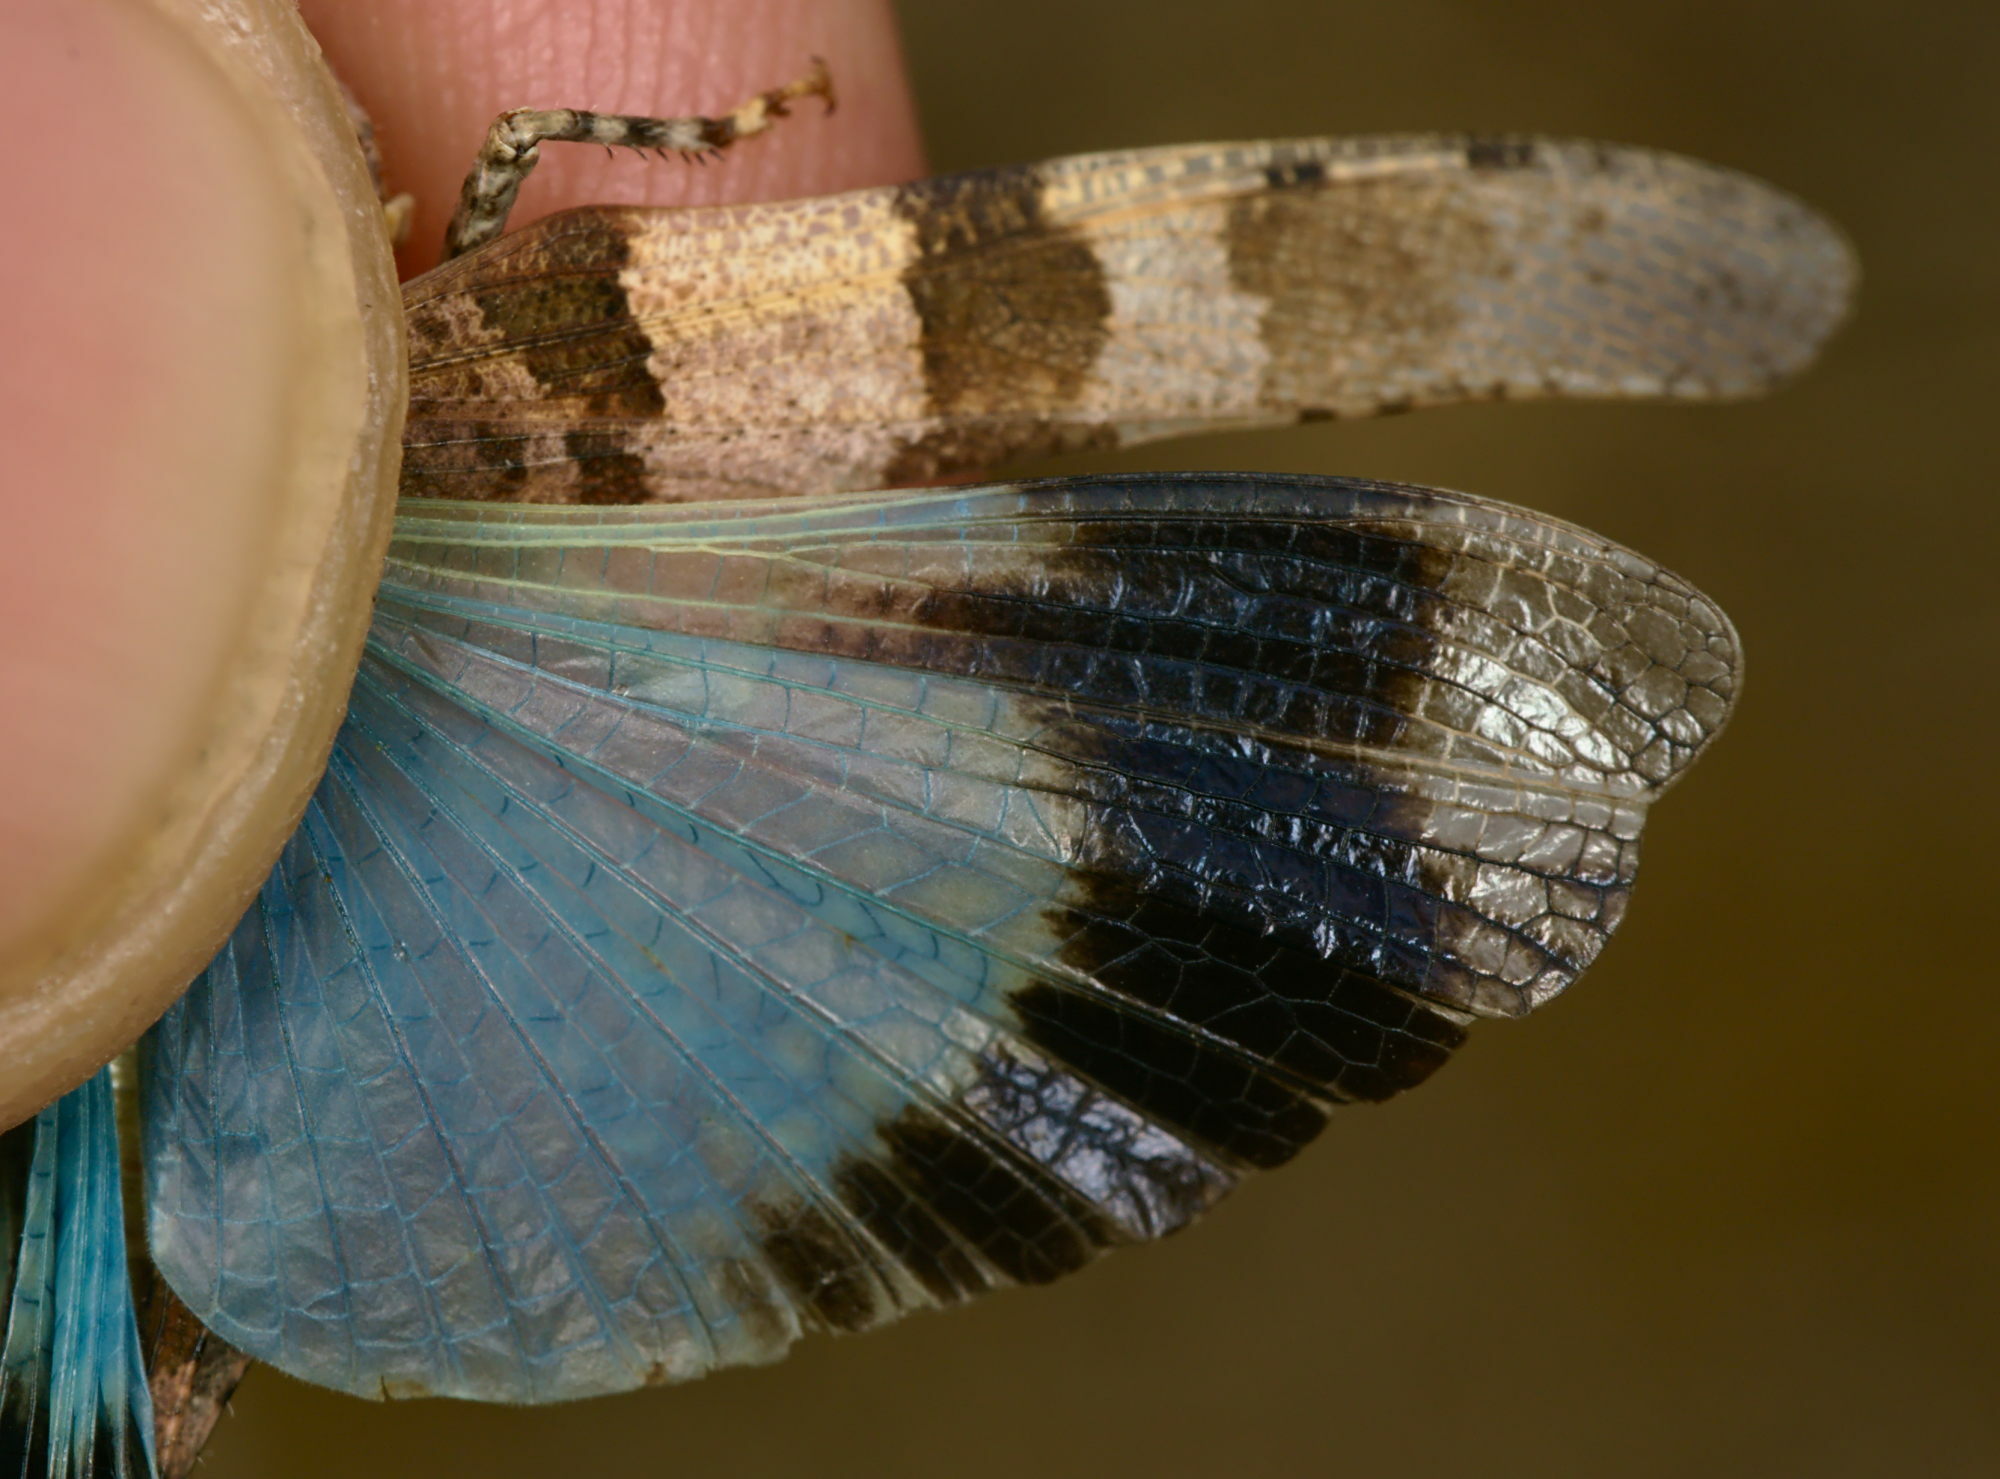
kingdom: Animalia
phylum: Arthropoda
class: Insecta
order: Orthoptera
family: Acrididae
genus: Oedipoda
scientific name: Oedipoda caerulescens
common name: Blue-winged grasshopper
